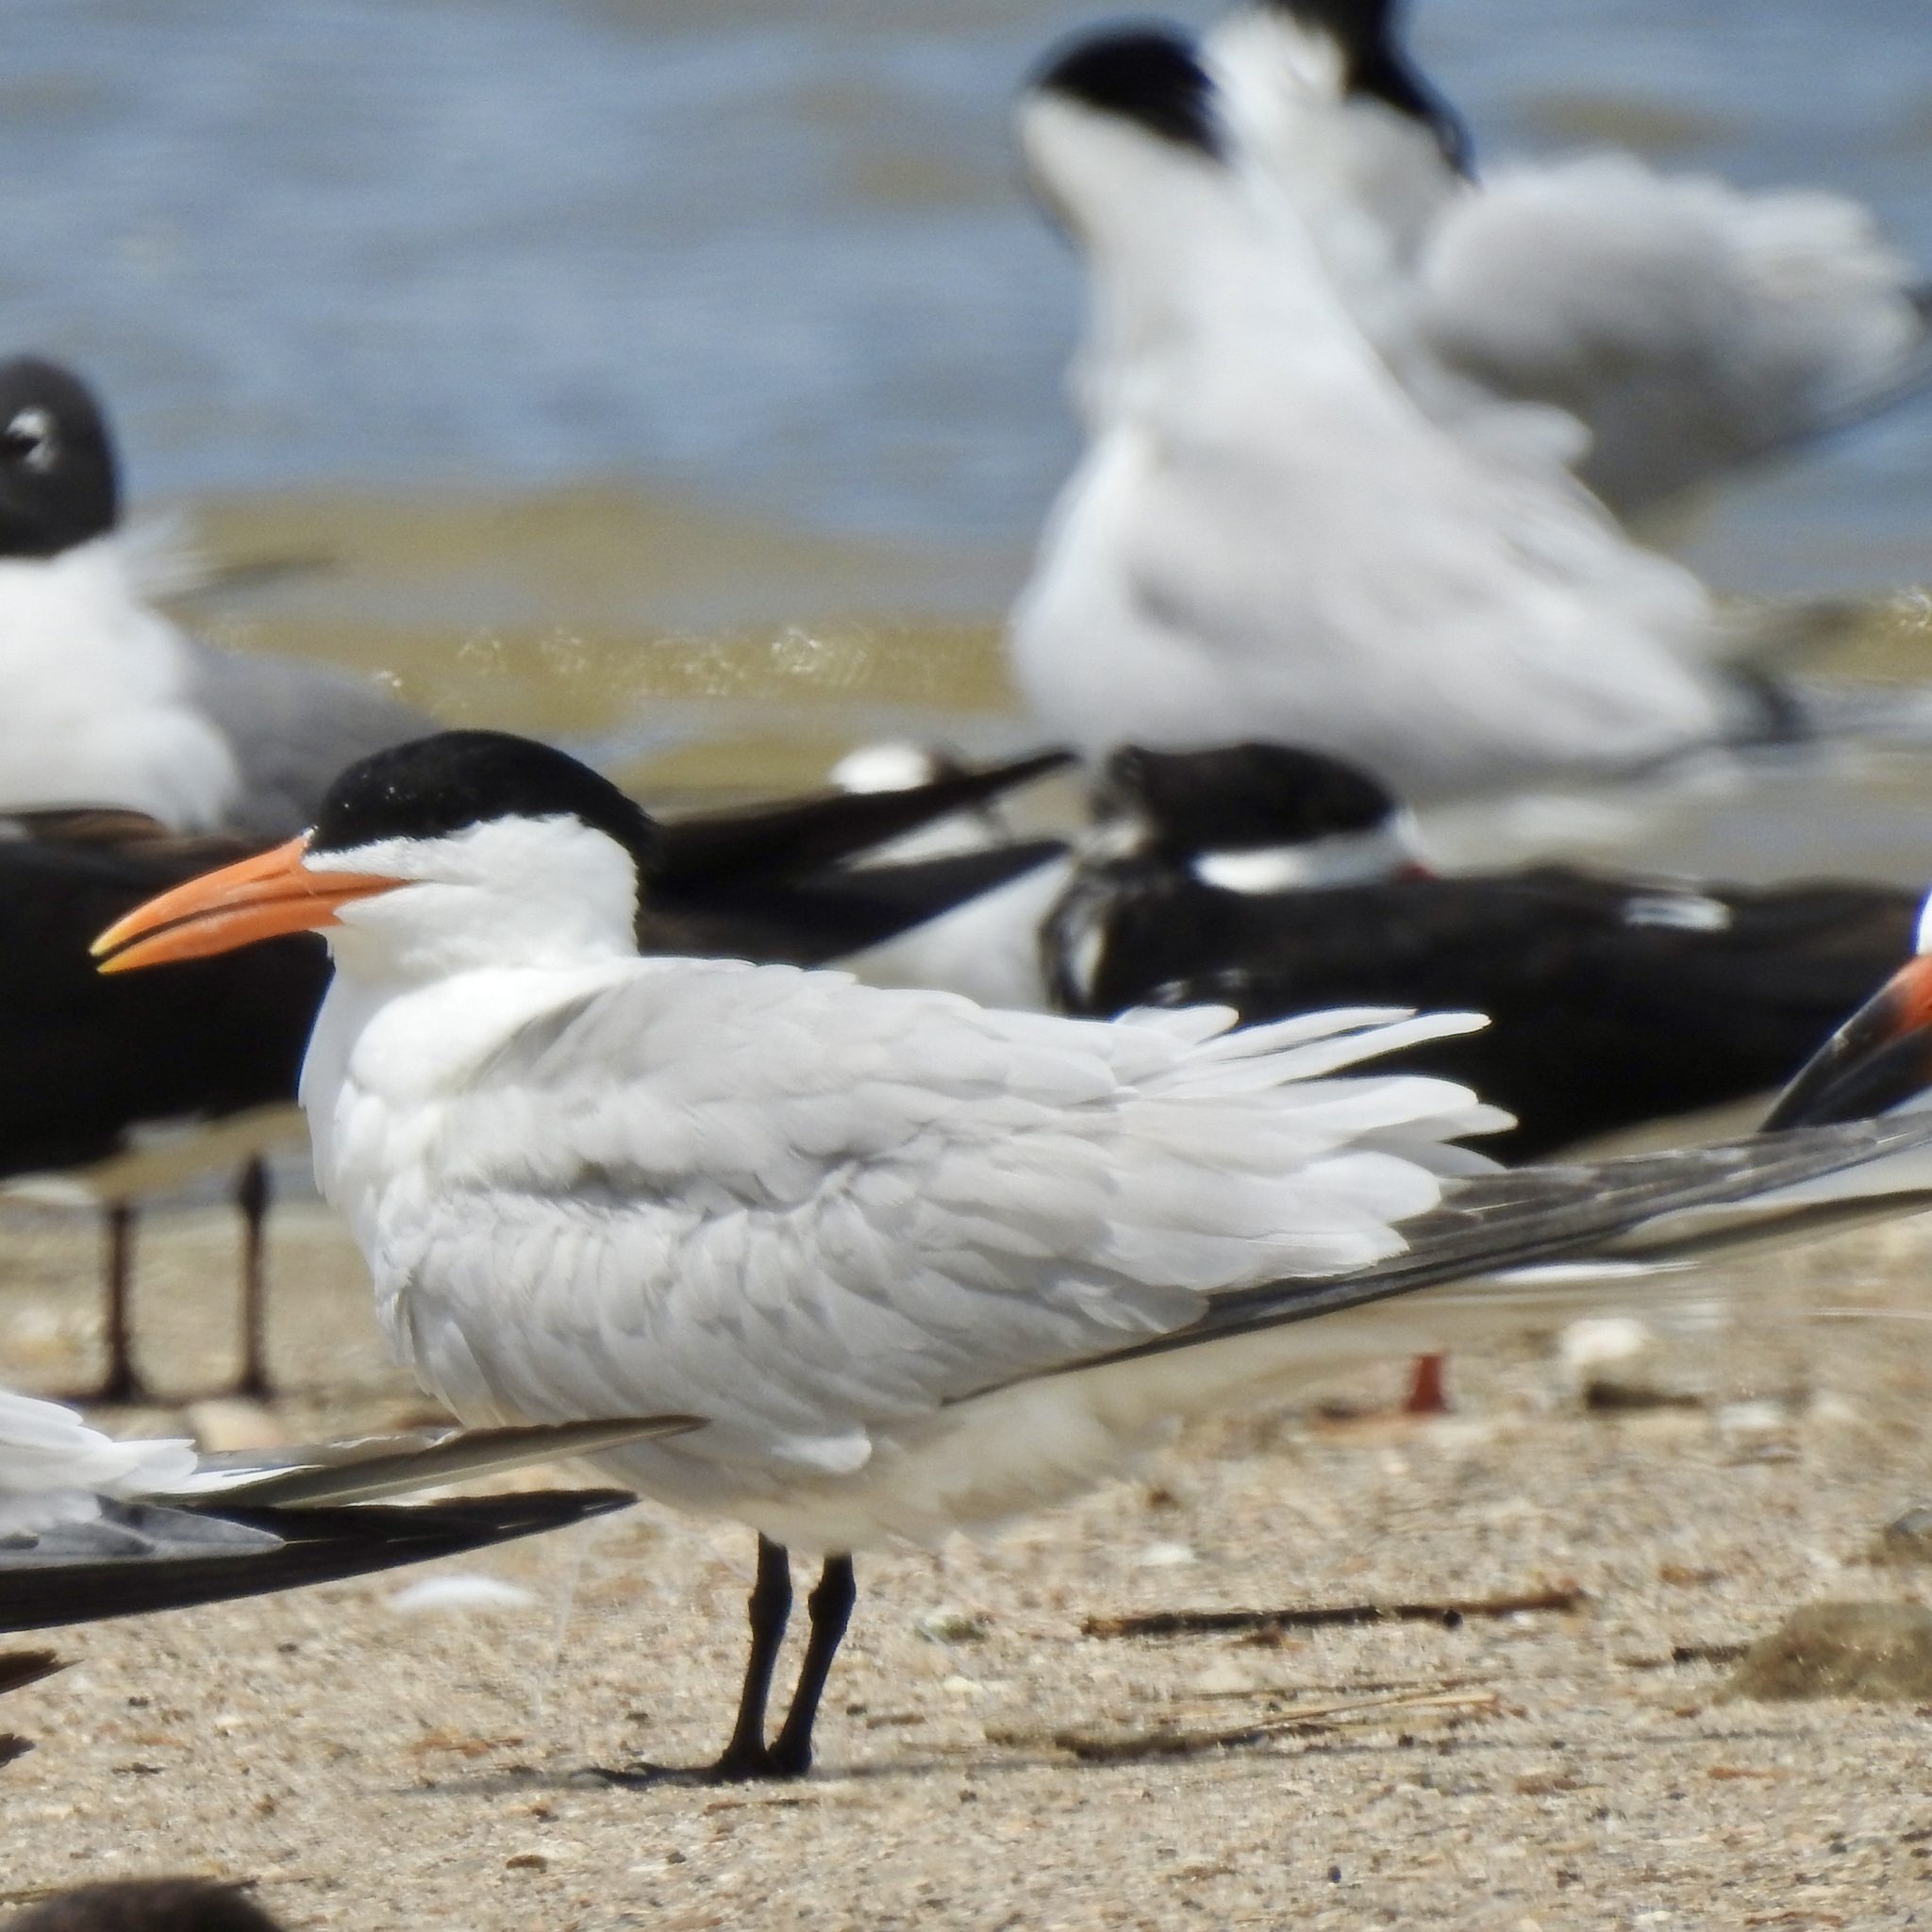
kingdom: Animalia
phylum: Chordata
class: Aves
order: Charadriiformes
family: Laridae
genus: Thalasseus
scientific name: Thalasseus maximus
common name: Royal tern
